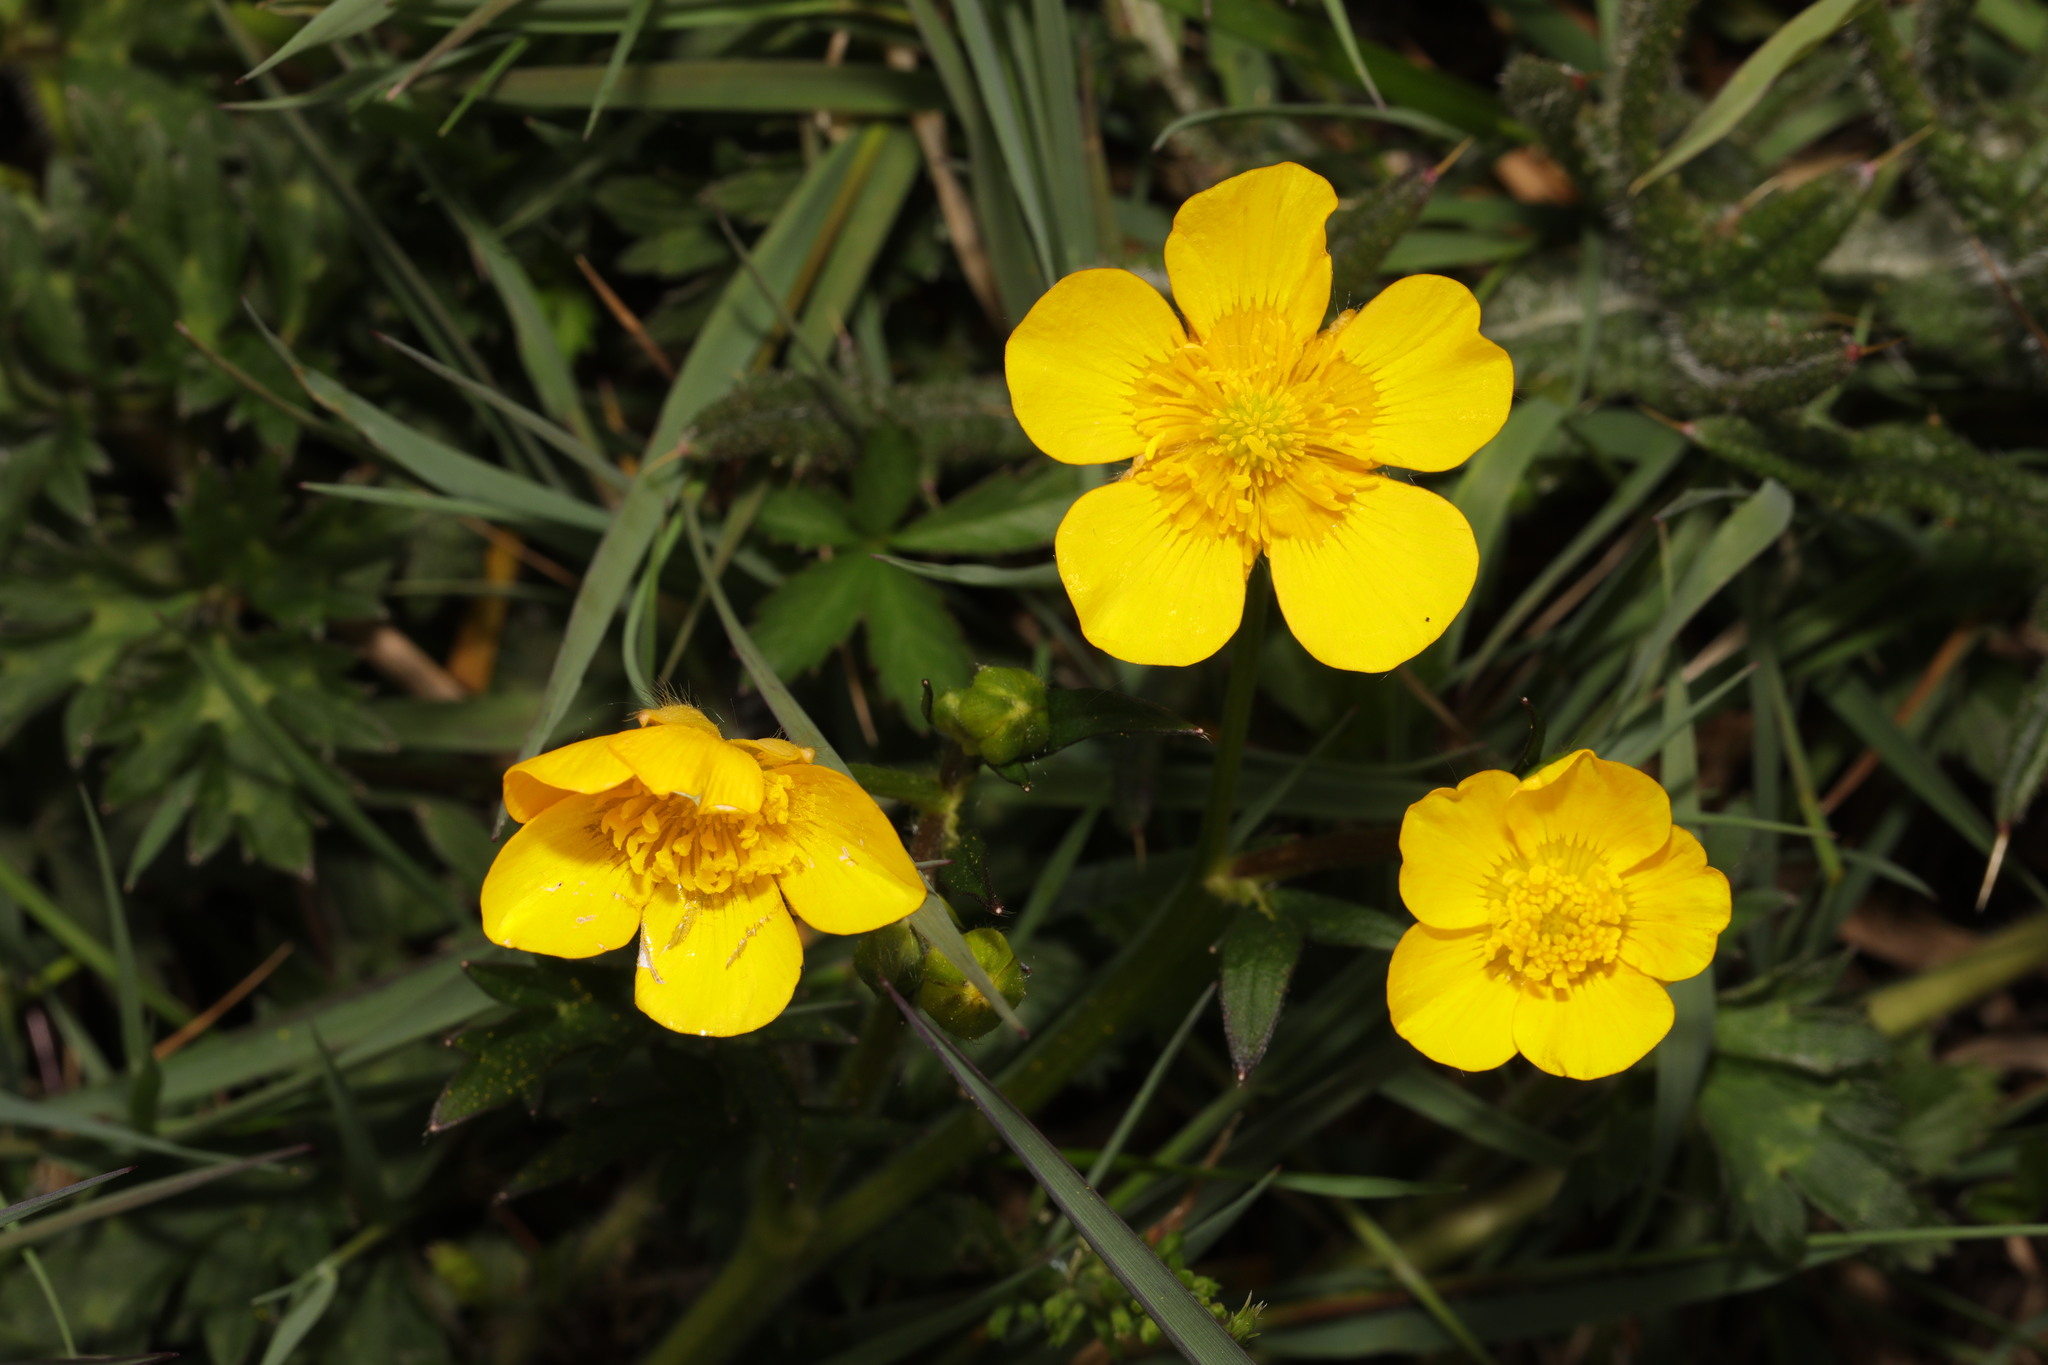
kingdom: Plantae
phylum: Tracheophyta
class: Magnoliopsida
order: Ranunculales
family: Ranunculaceae
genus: Ranunculus
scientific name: Ranunculus repens
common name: Creeping buttercup
